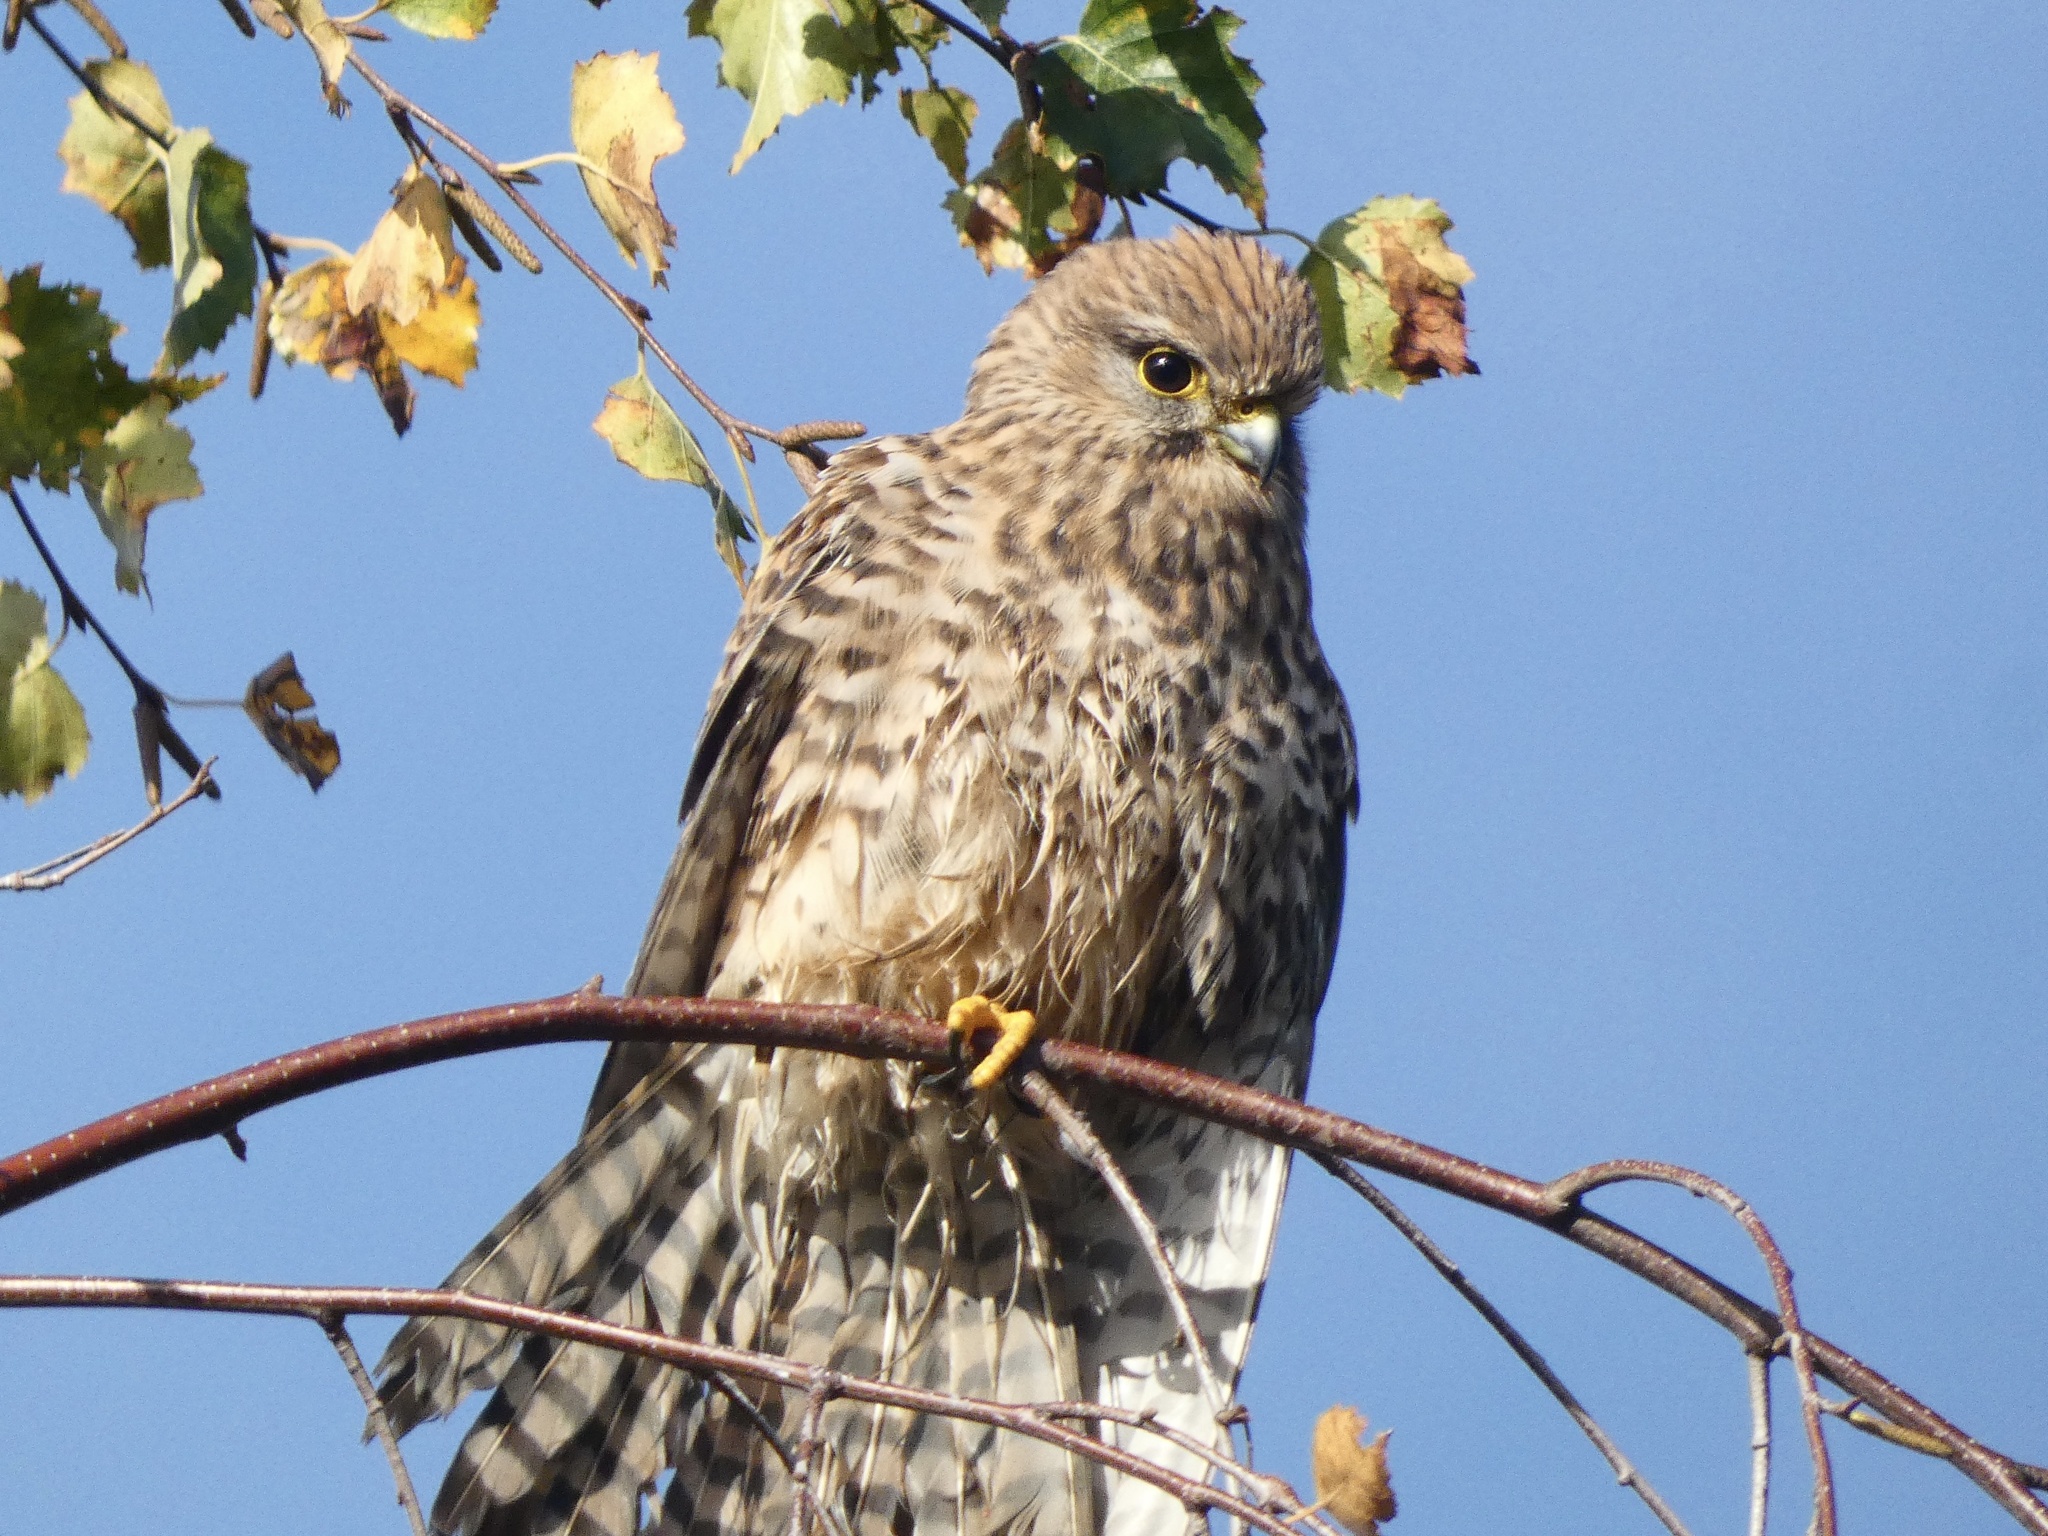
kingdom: Animalia
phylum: Chordata
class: Aves
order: Falconiformes
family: Falconidae
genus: Falco
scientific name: Falco tinnunculus
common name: Common kestrel
